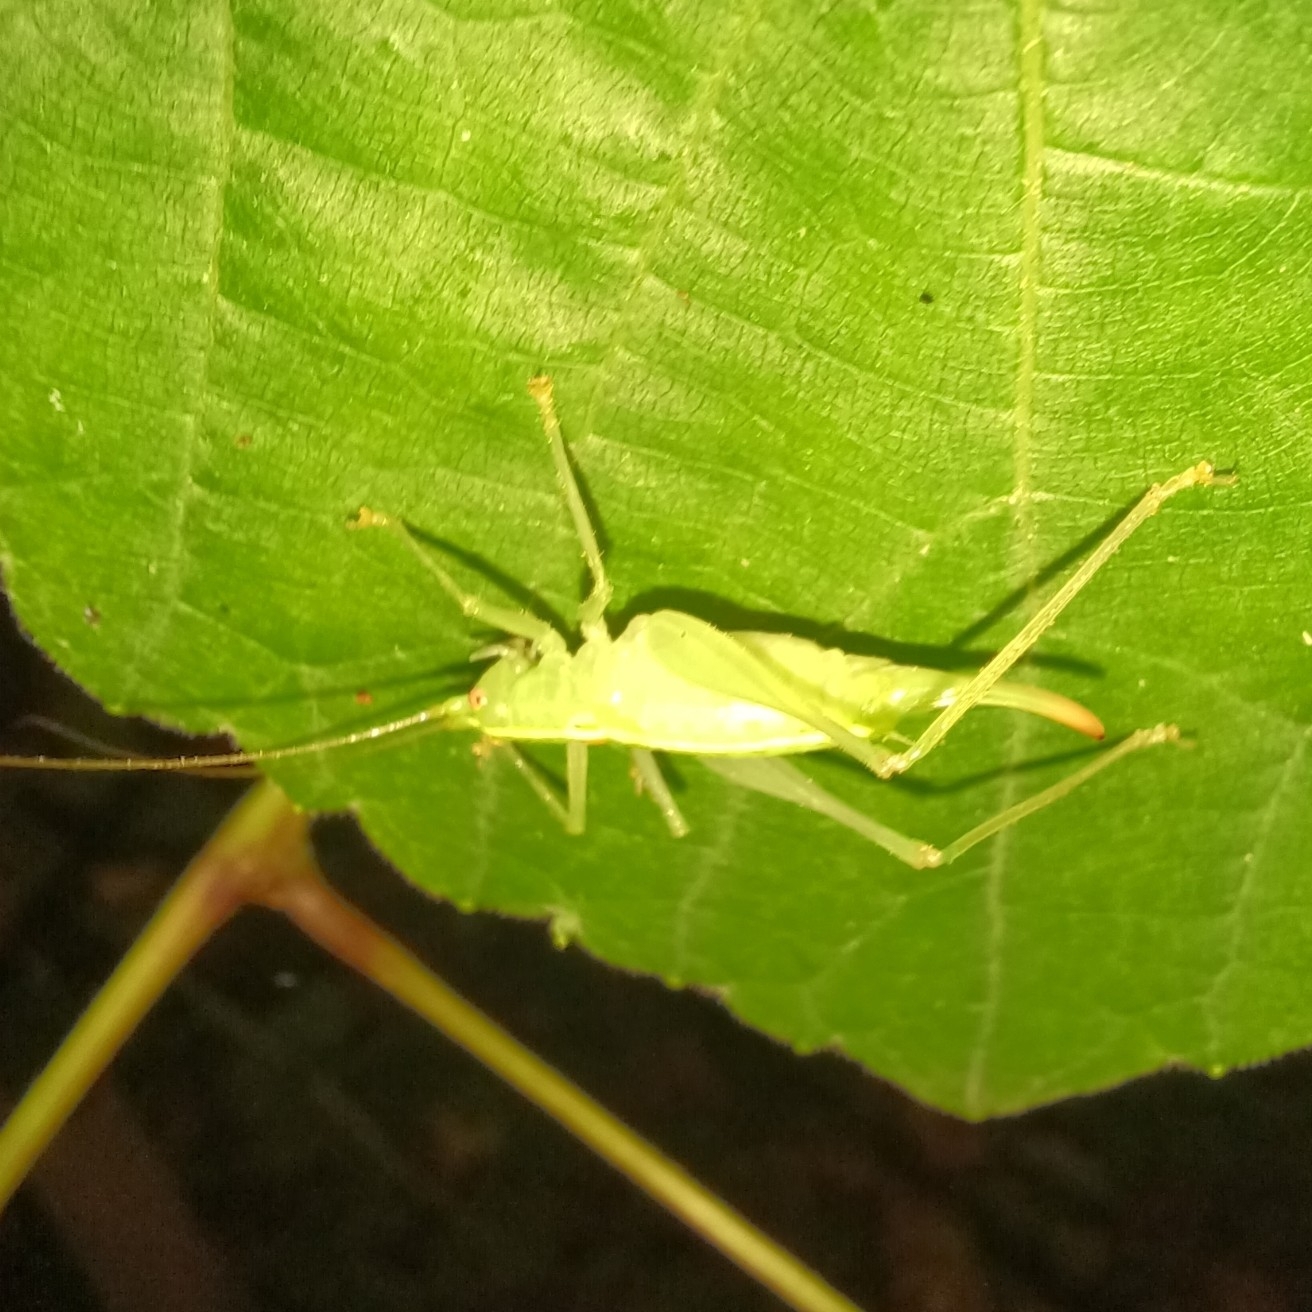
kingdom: Animalia
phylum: Arthropoda
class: Insecta
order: Orthoptera
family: Tettigoniidae
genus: Meconema
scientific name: Meconema meridionale
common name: Southern oak bush-cricket
